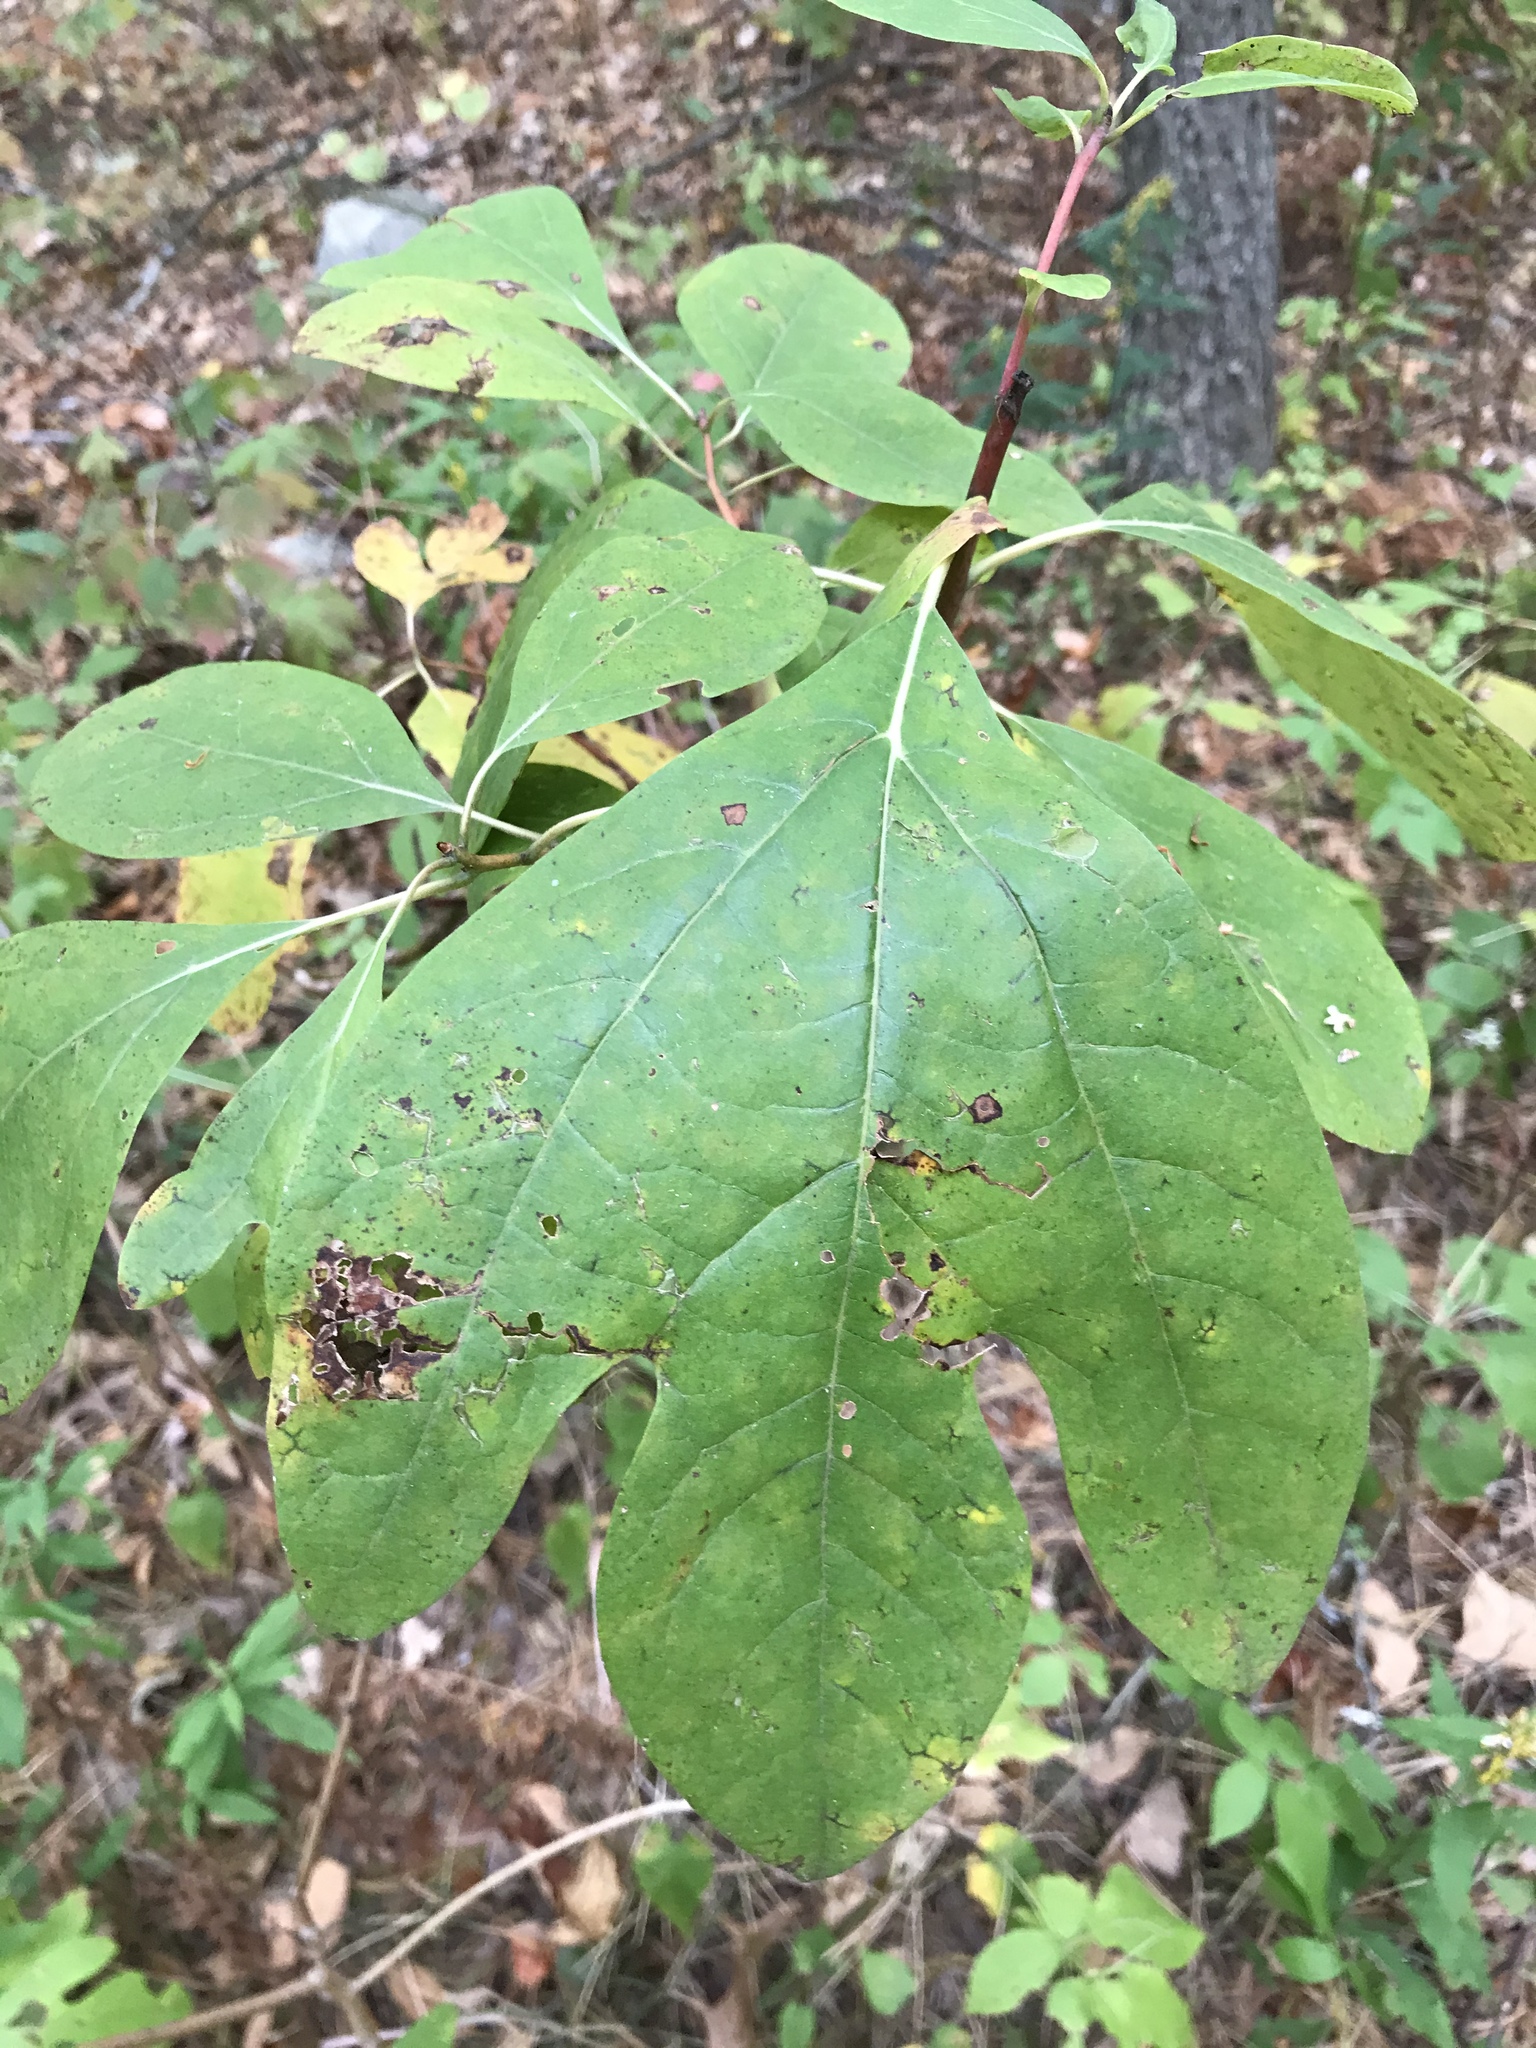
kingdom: Plantae
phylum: Tracheophyta
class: Magnoliopsida
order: Laurales
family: Lauraceae
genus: Sassafras
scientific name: Sassafras albidum
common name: Sassafras
